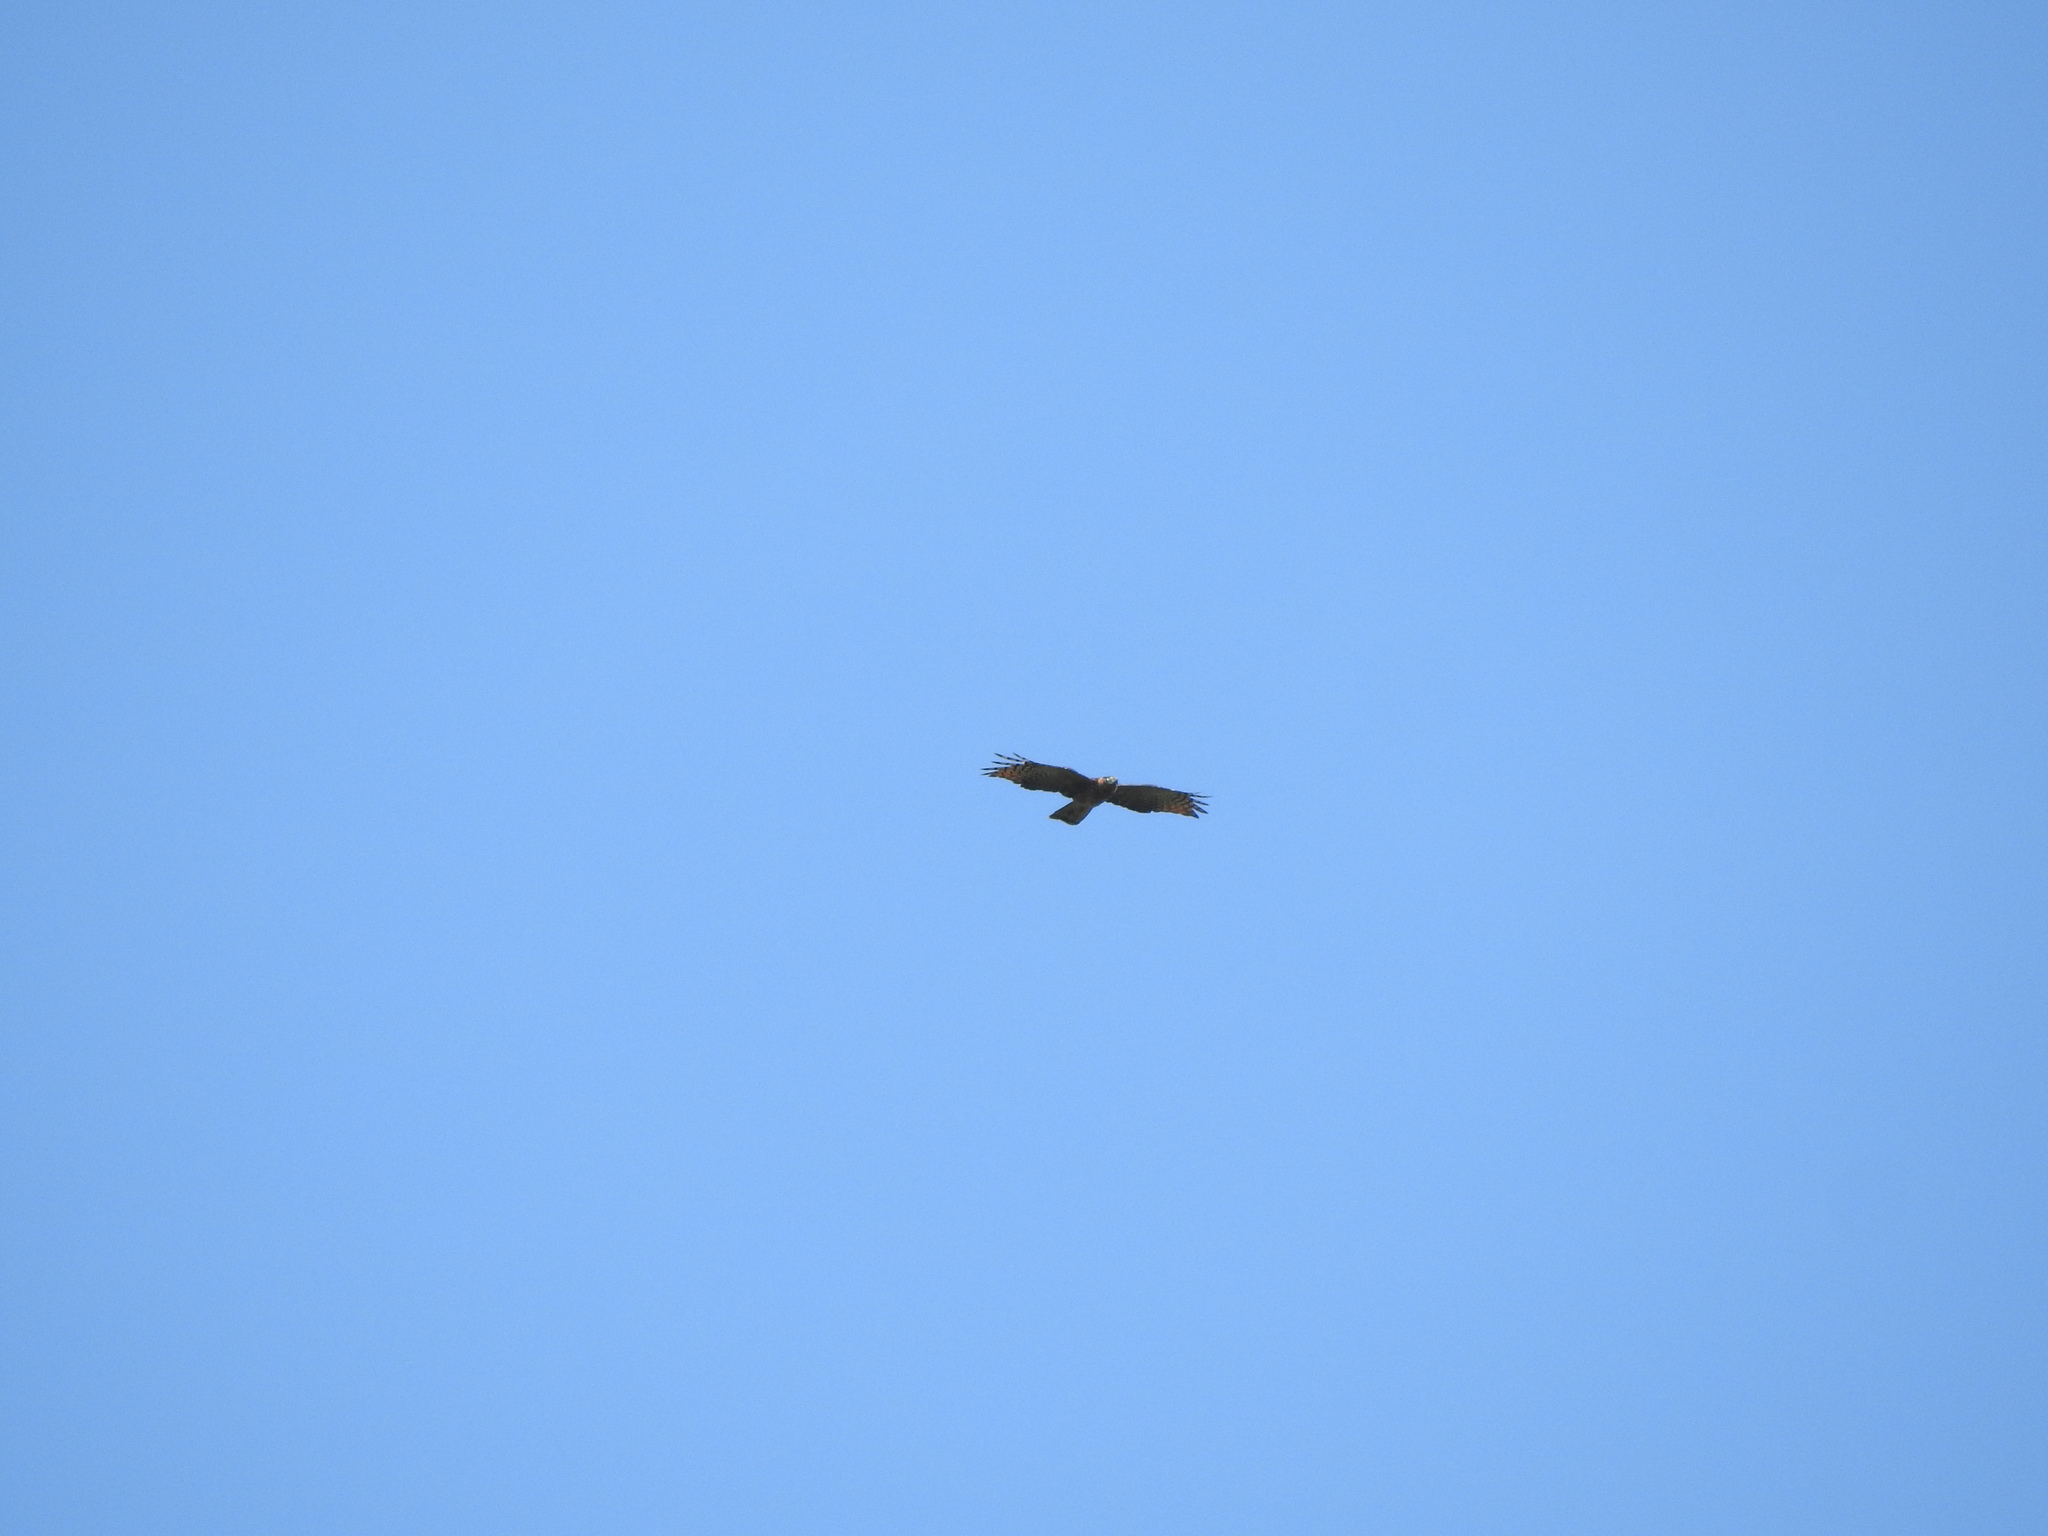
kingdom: Animalia
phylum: Chordata
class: Aves
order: Accipitriformes
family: Accipitridae
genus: Chondrohierax
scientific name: Chondrohierax uncinatus
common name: Hook-billed kite
